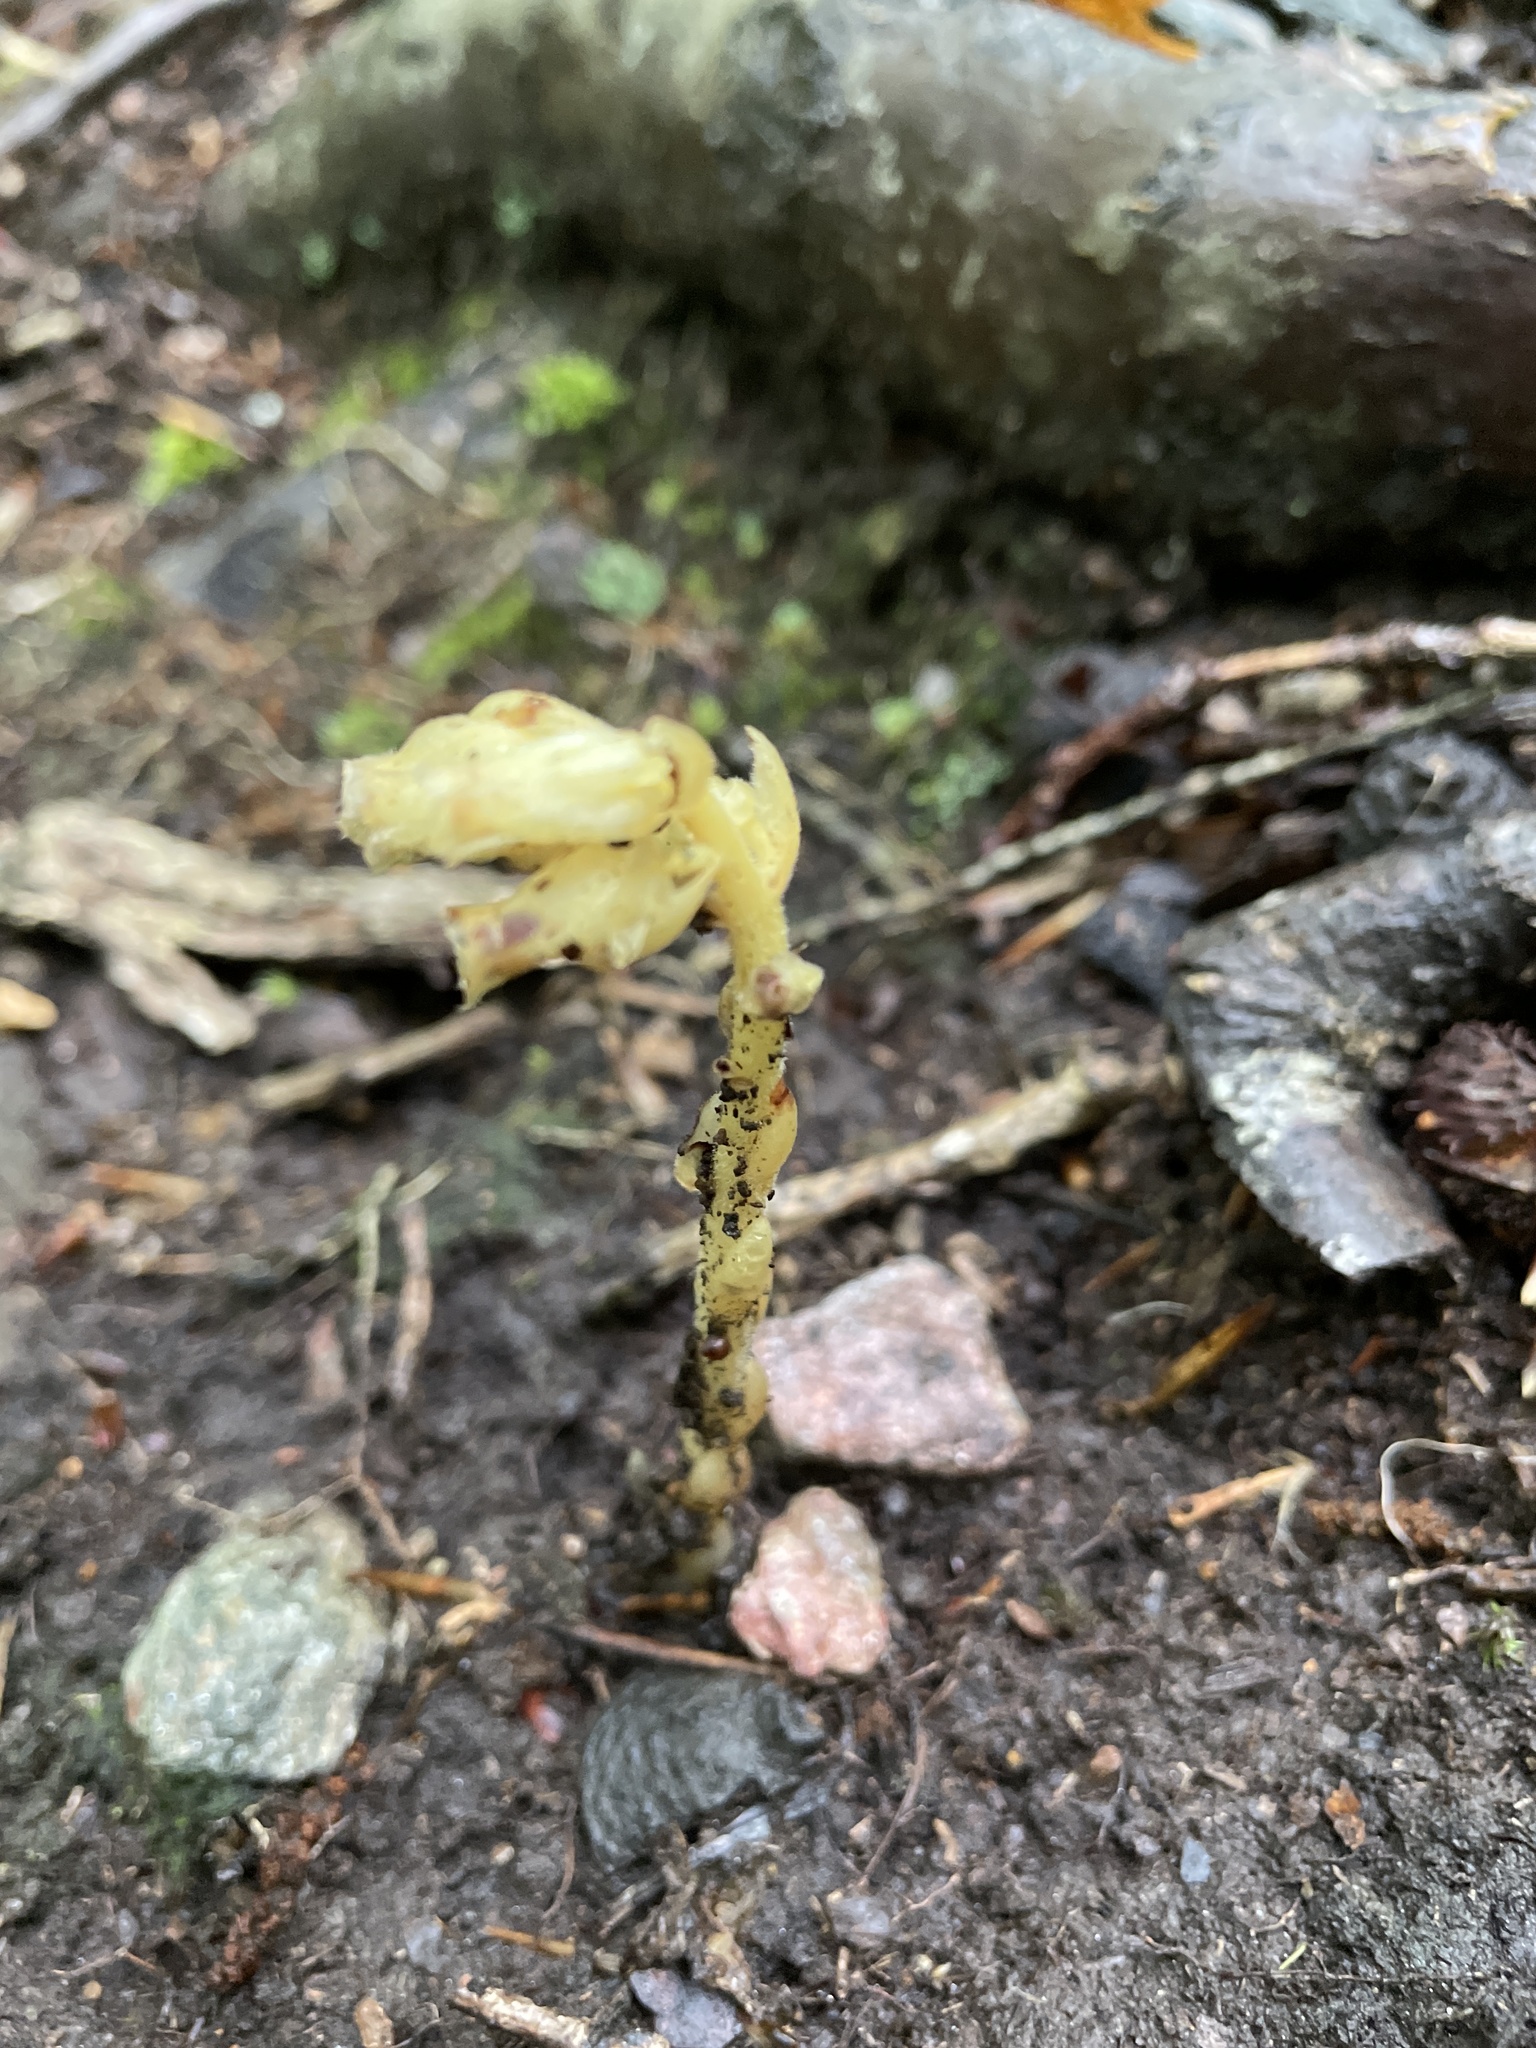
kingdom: Plantae
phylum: Tracheophyta
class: Magnoliopsida
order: Ericales
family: Ericaceae
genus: Hypopitys
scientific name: Hypopitys monotropa
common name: Yellow bird's-nest
